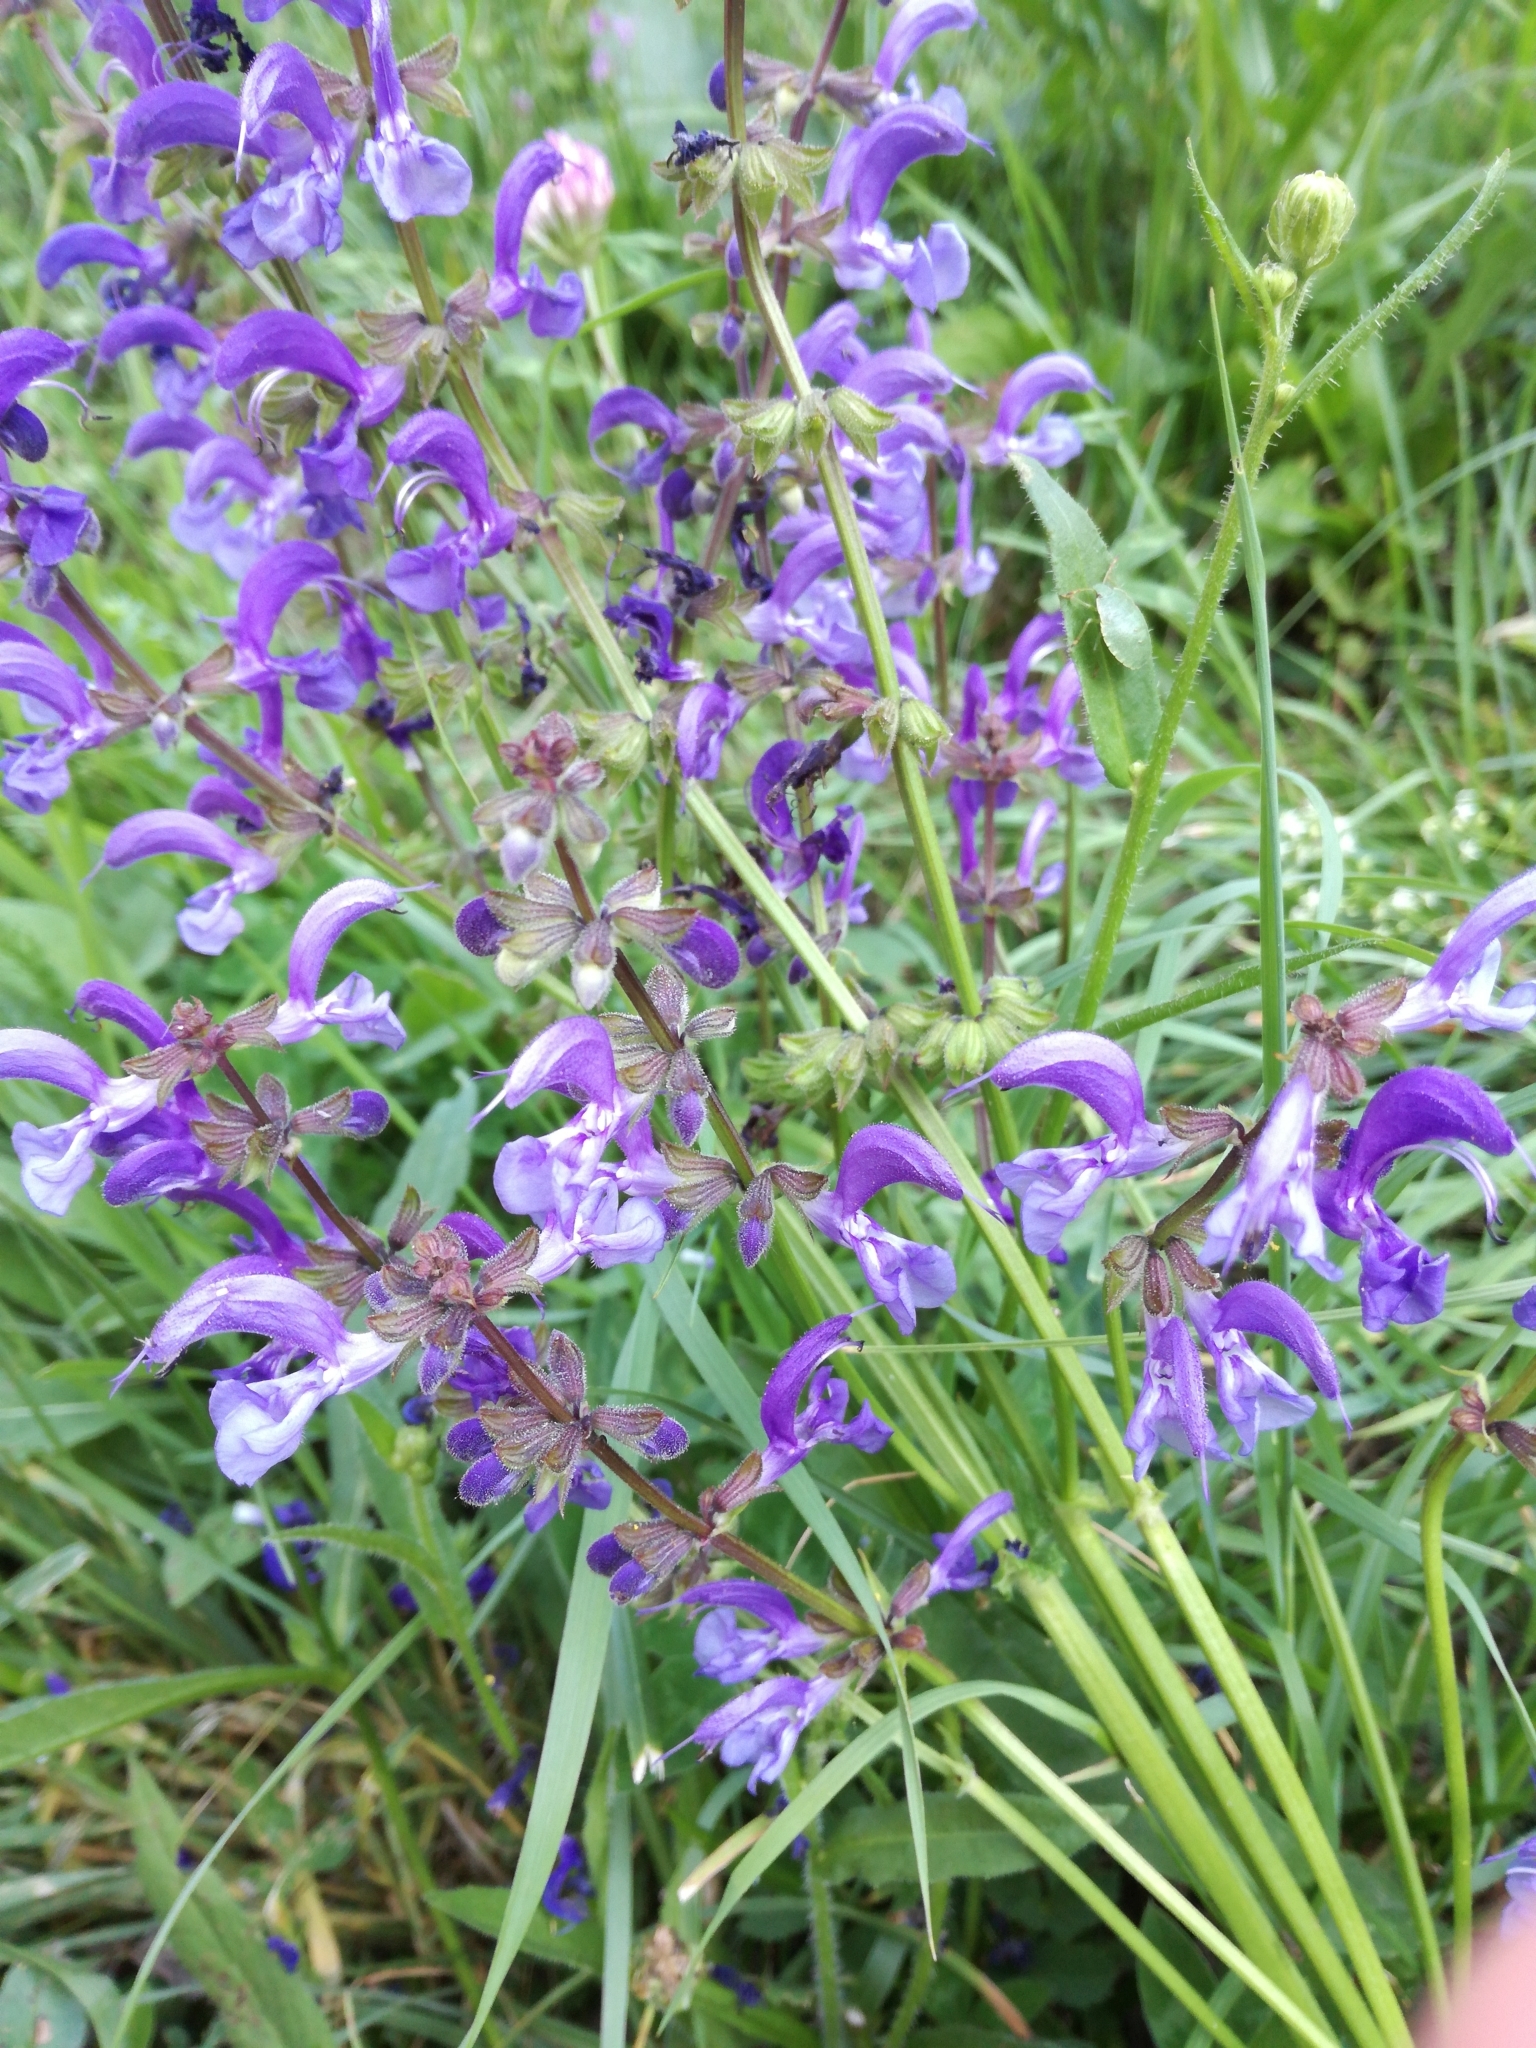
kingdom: Plantae
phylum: Tracheophyta
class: Magnoliopsida
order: Lamiales
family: Lamiaceae
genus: Salvia
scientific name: Salvia pratensis
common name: Meadow sage
